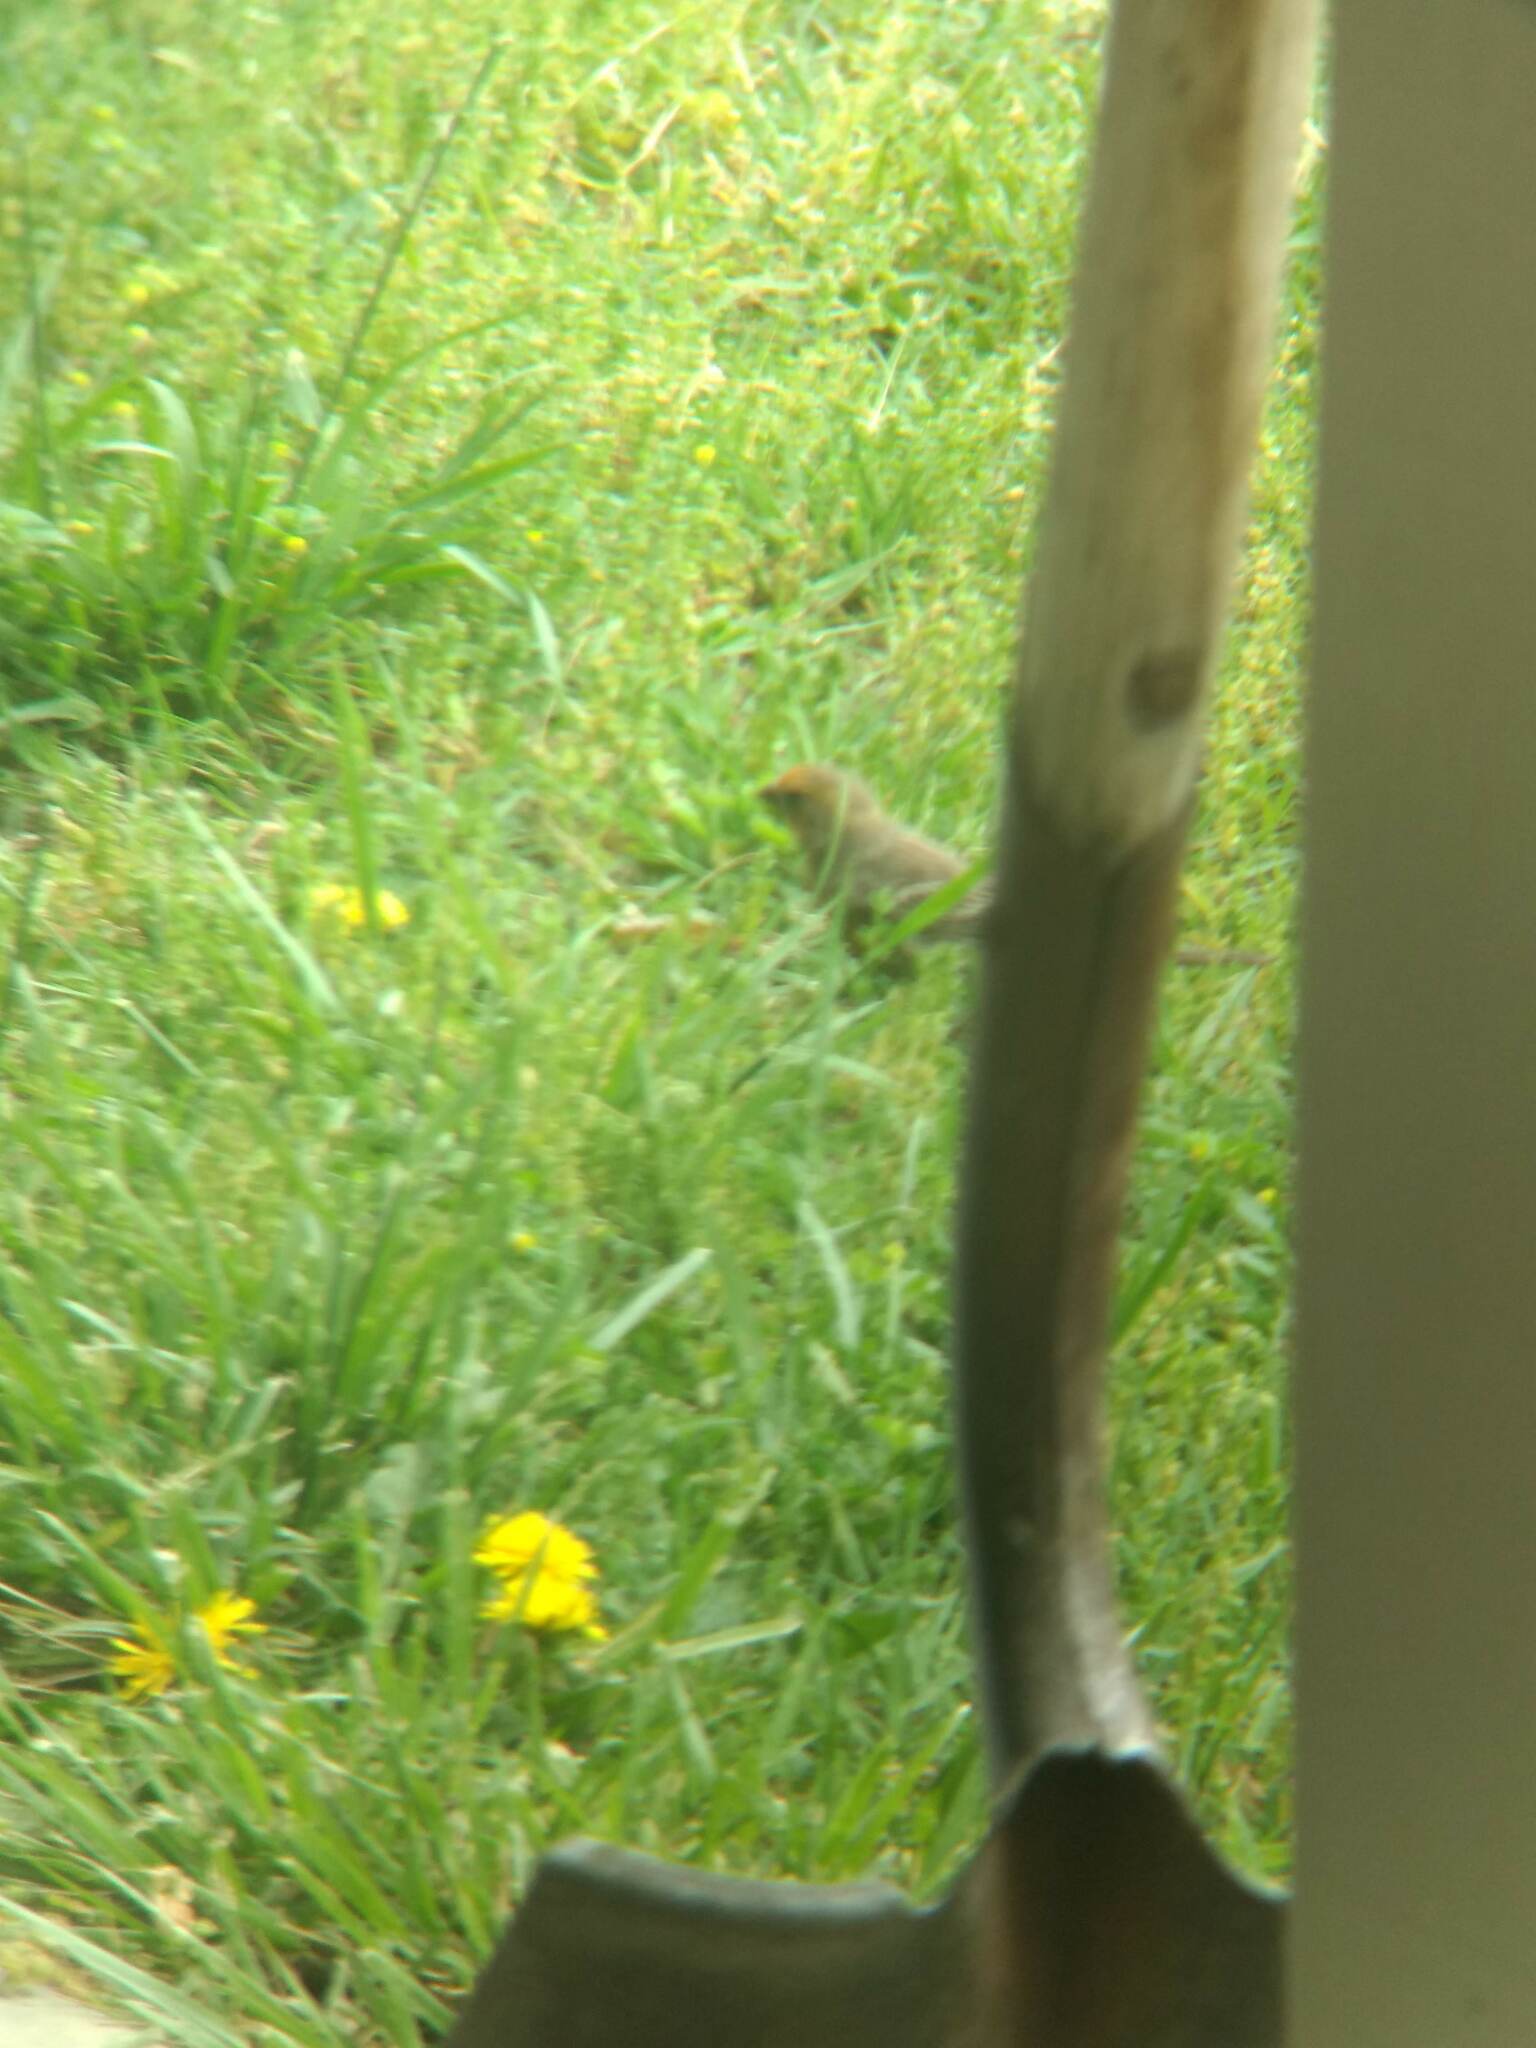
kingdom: Animalia
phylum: Chordata
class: Aves
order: Passeriformes
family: Fringillidae
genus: Haemorhous
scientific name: Haemorhous mexicanus
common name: House finch
